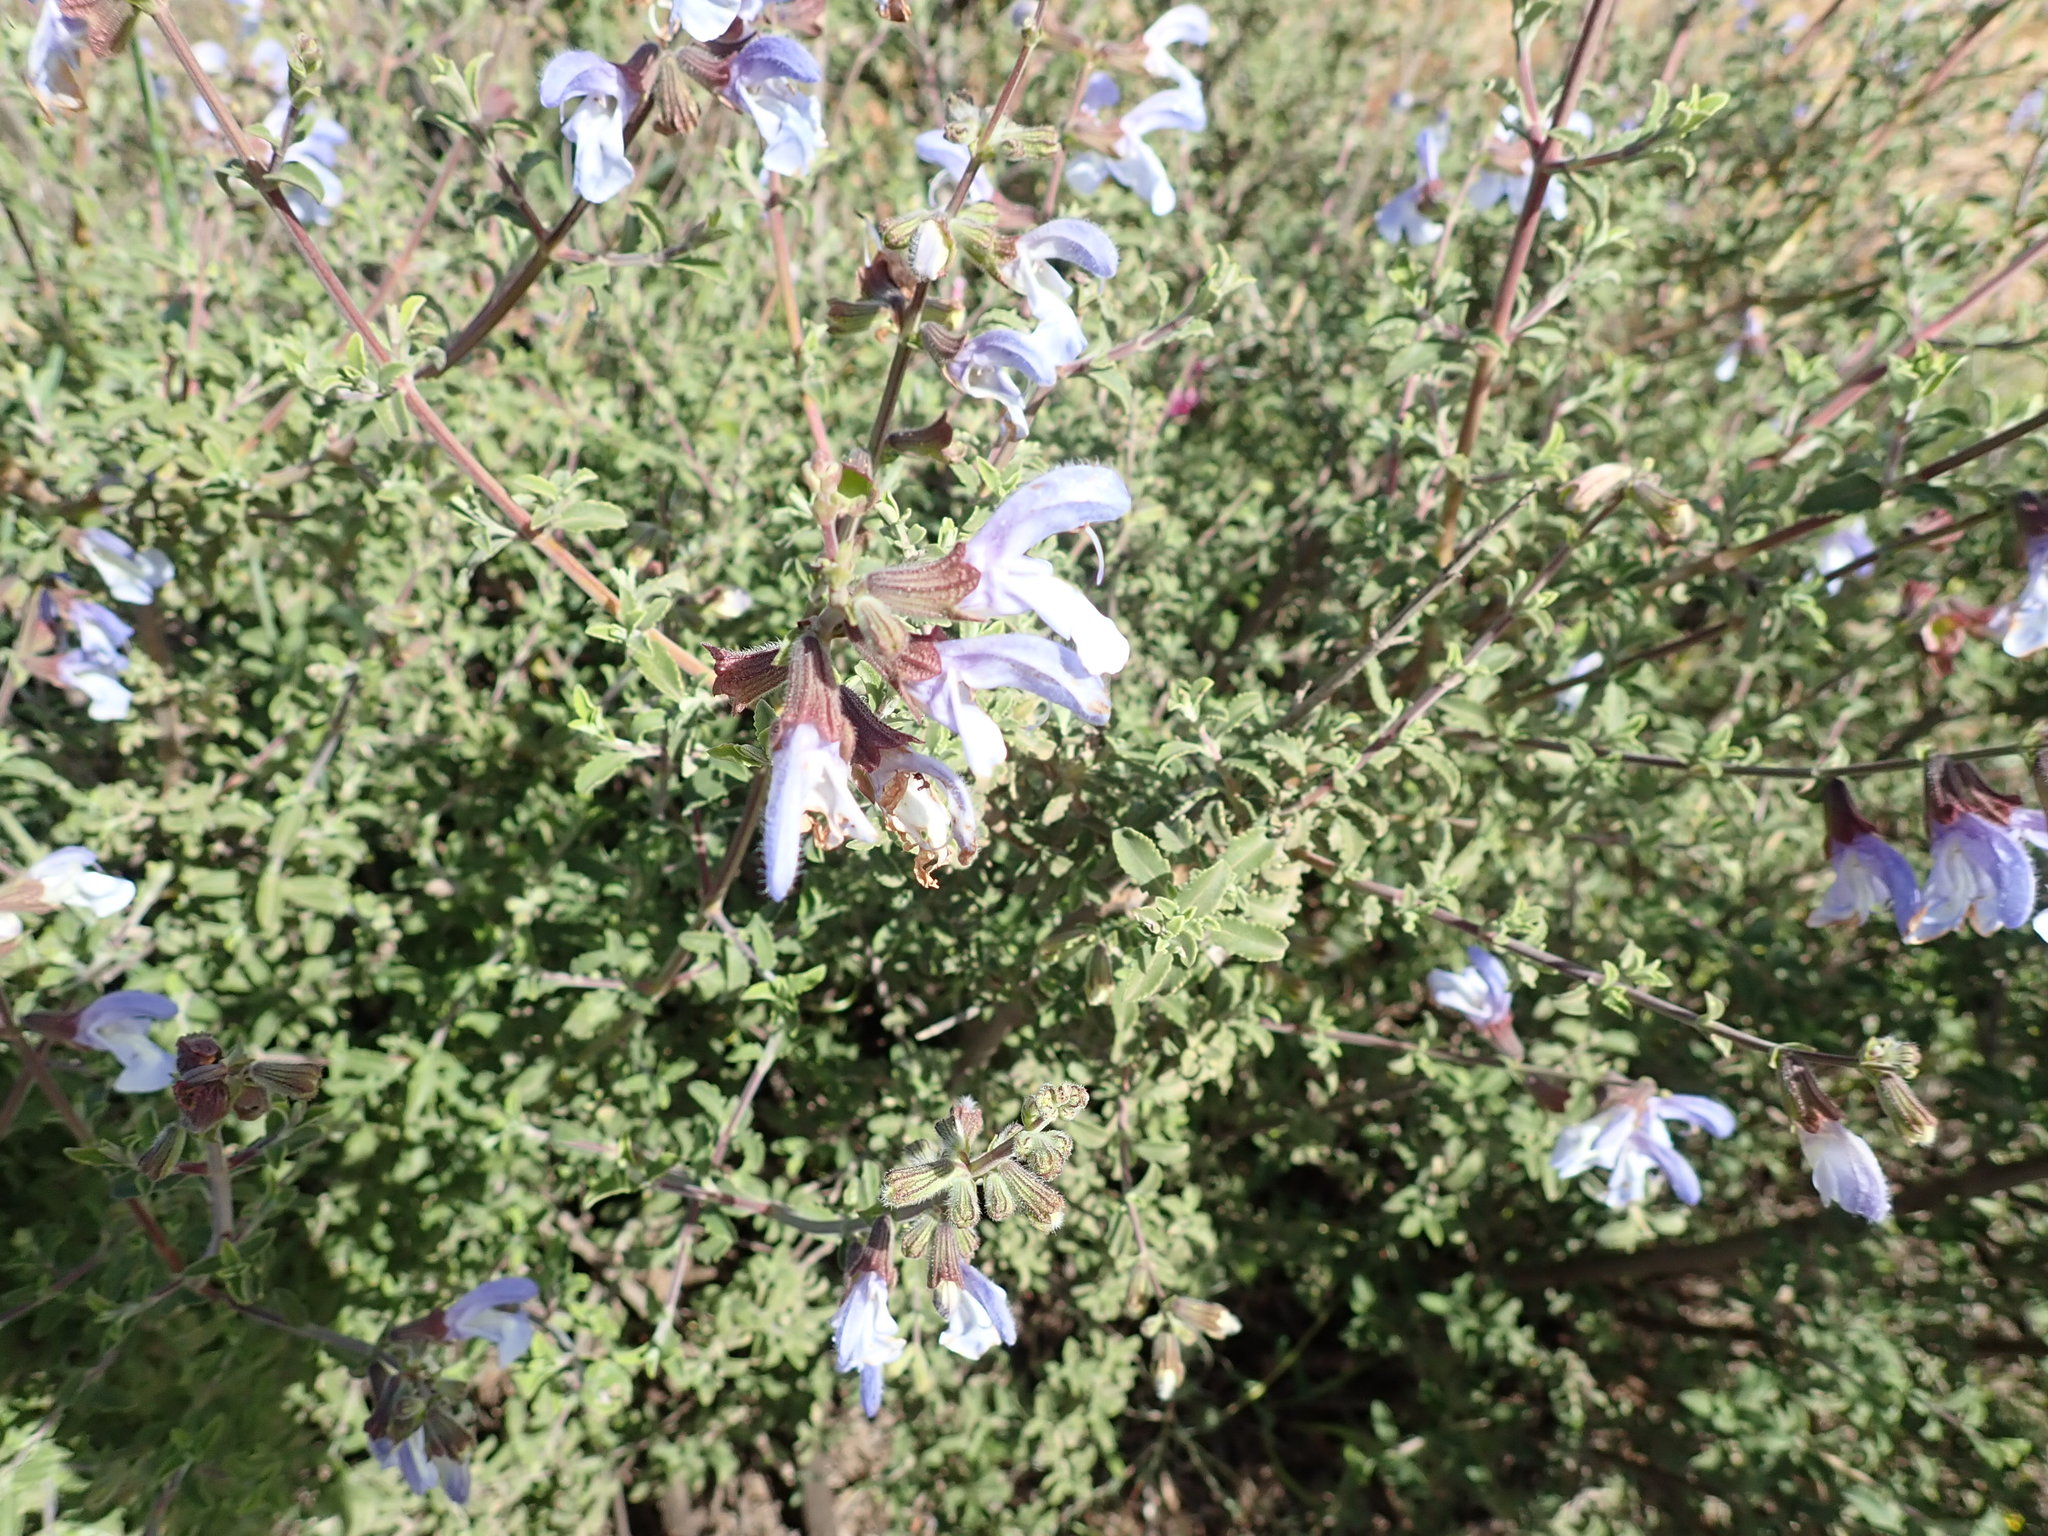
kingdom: Plantae
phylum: Tracheophyta
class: Magnoliopsida
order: Lamiales
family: Lamiaceae
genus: Salvia
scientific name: Salvia africana
